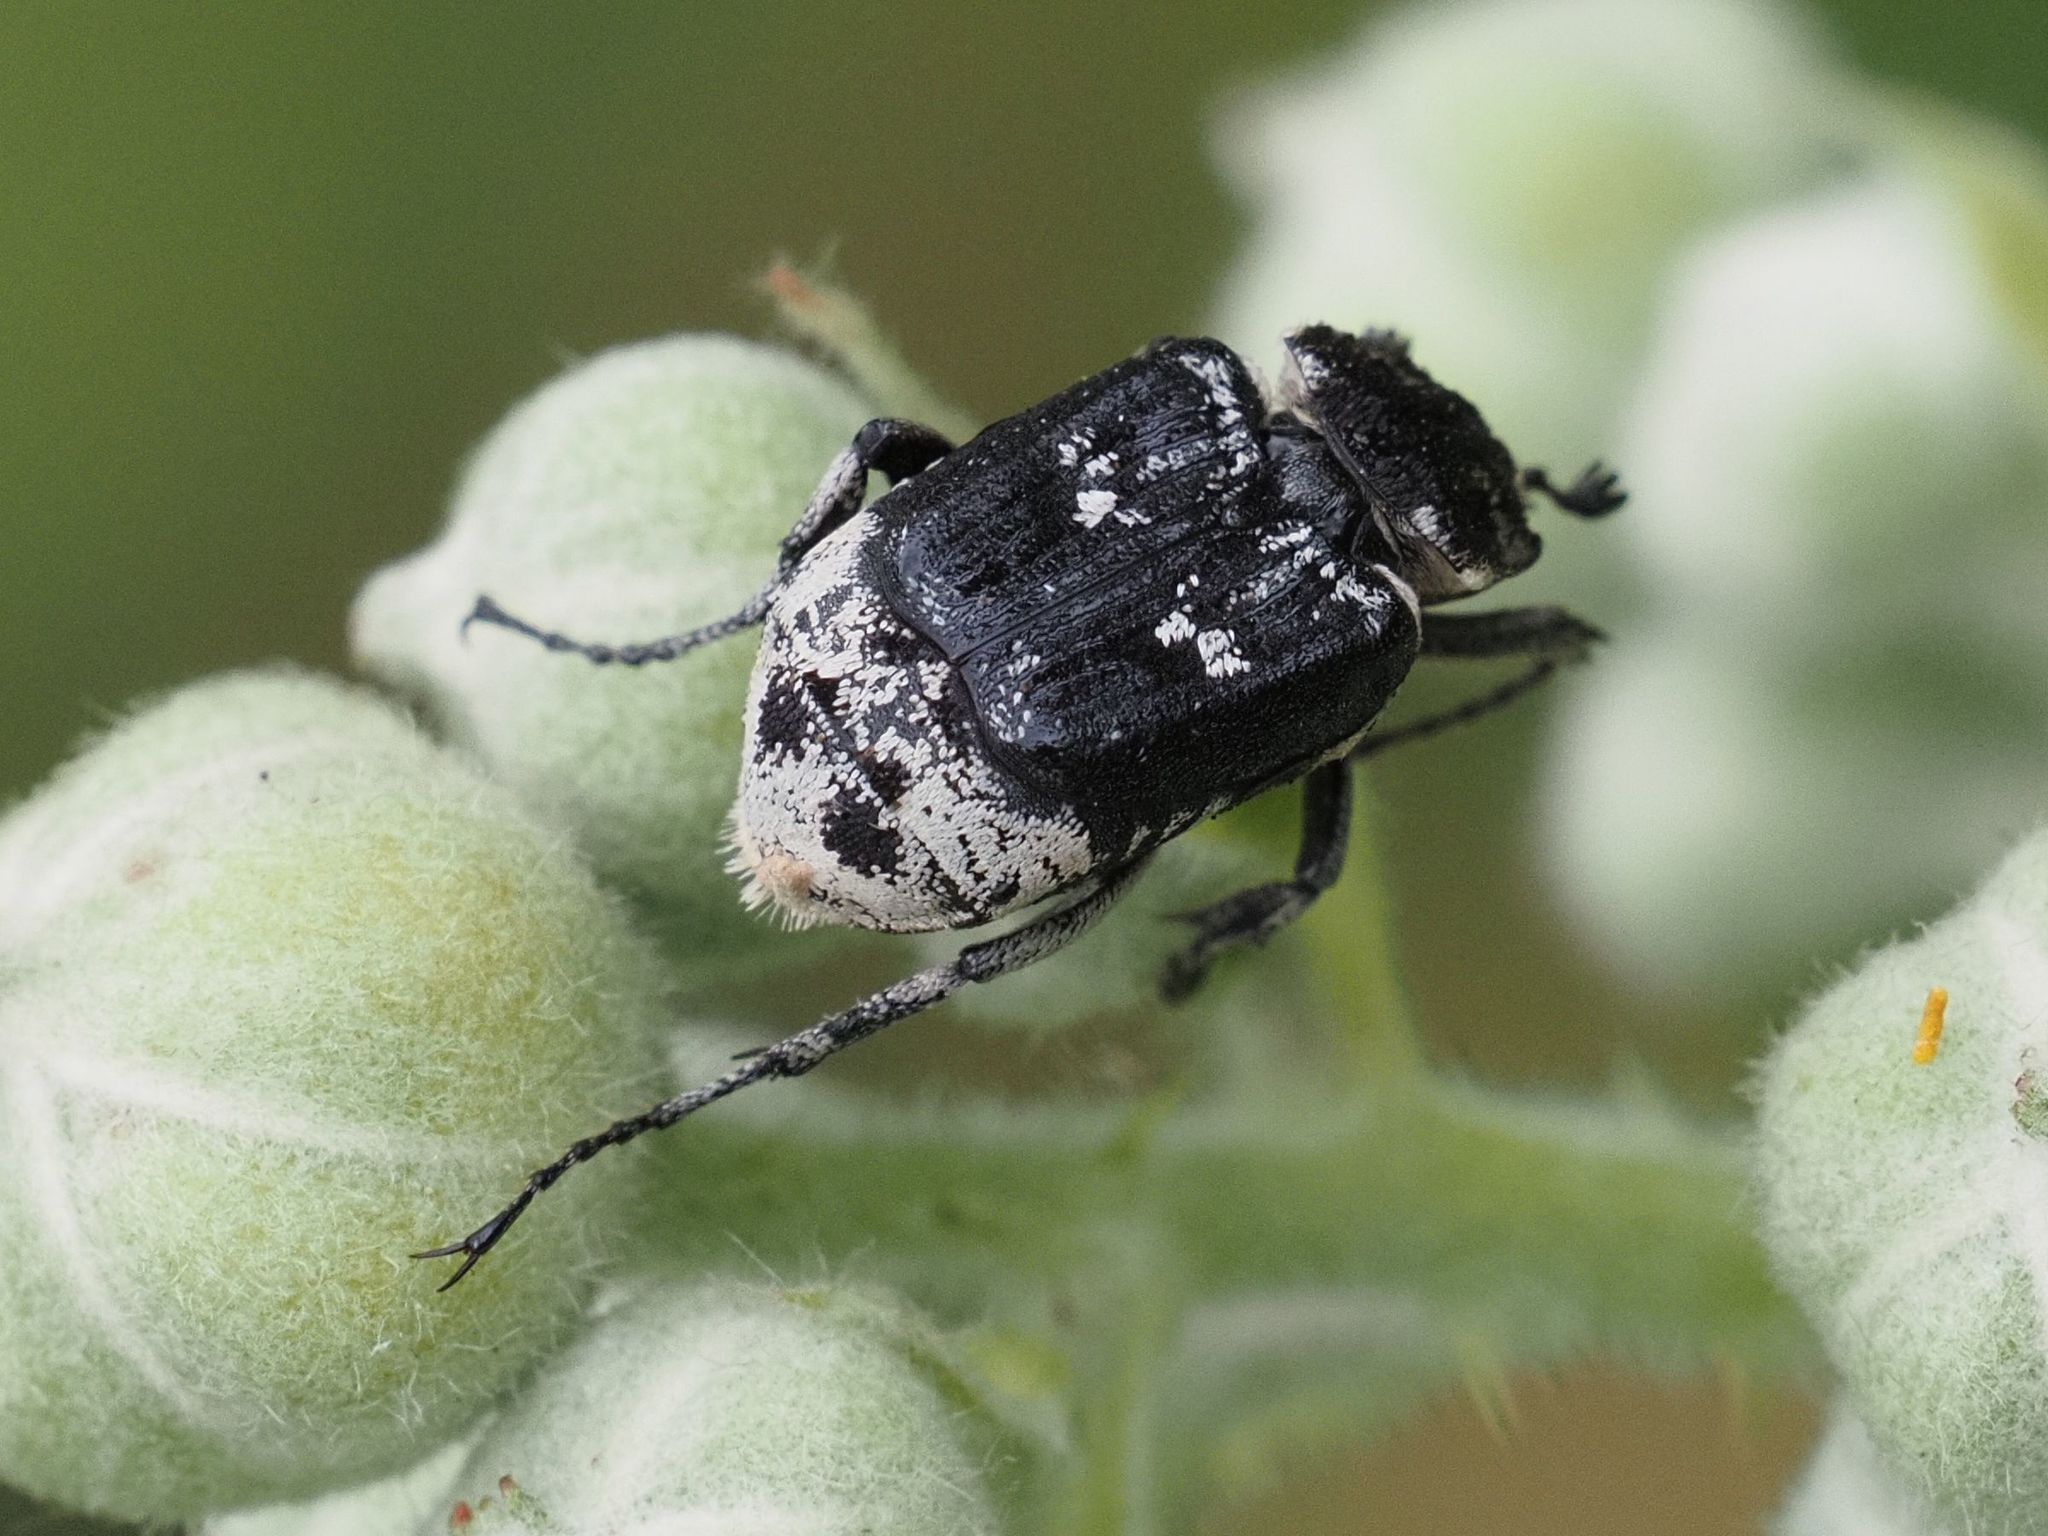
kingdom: Animalia
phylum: Arthropoda
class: Insecta
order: Coleoptera
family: Scarabaeidae
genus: Valgus
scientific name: Valgus hemipterus
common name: Bug flower chafer
